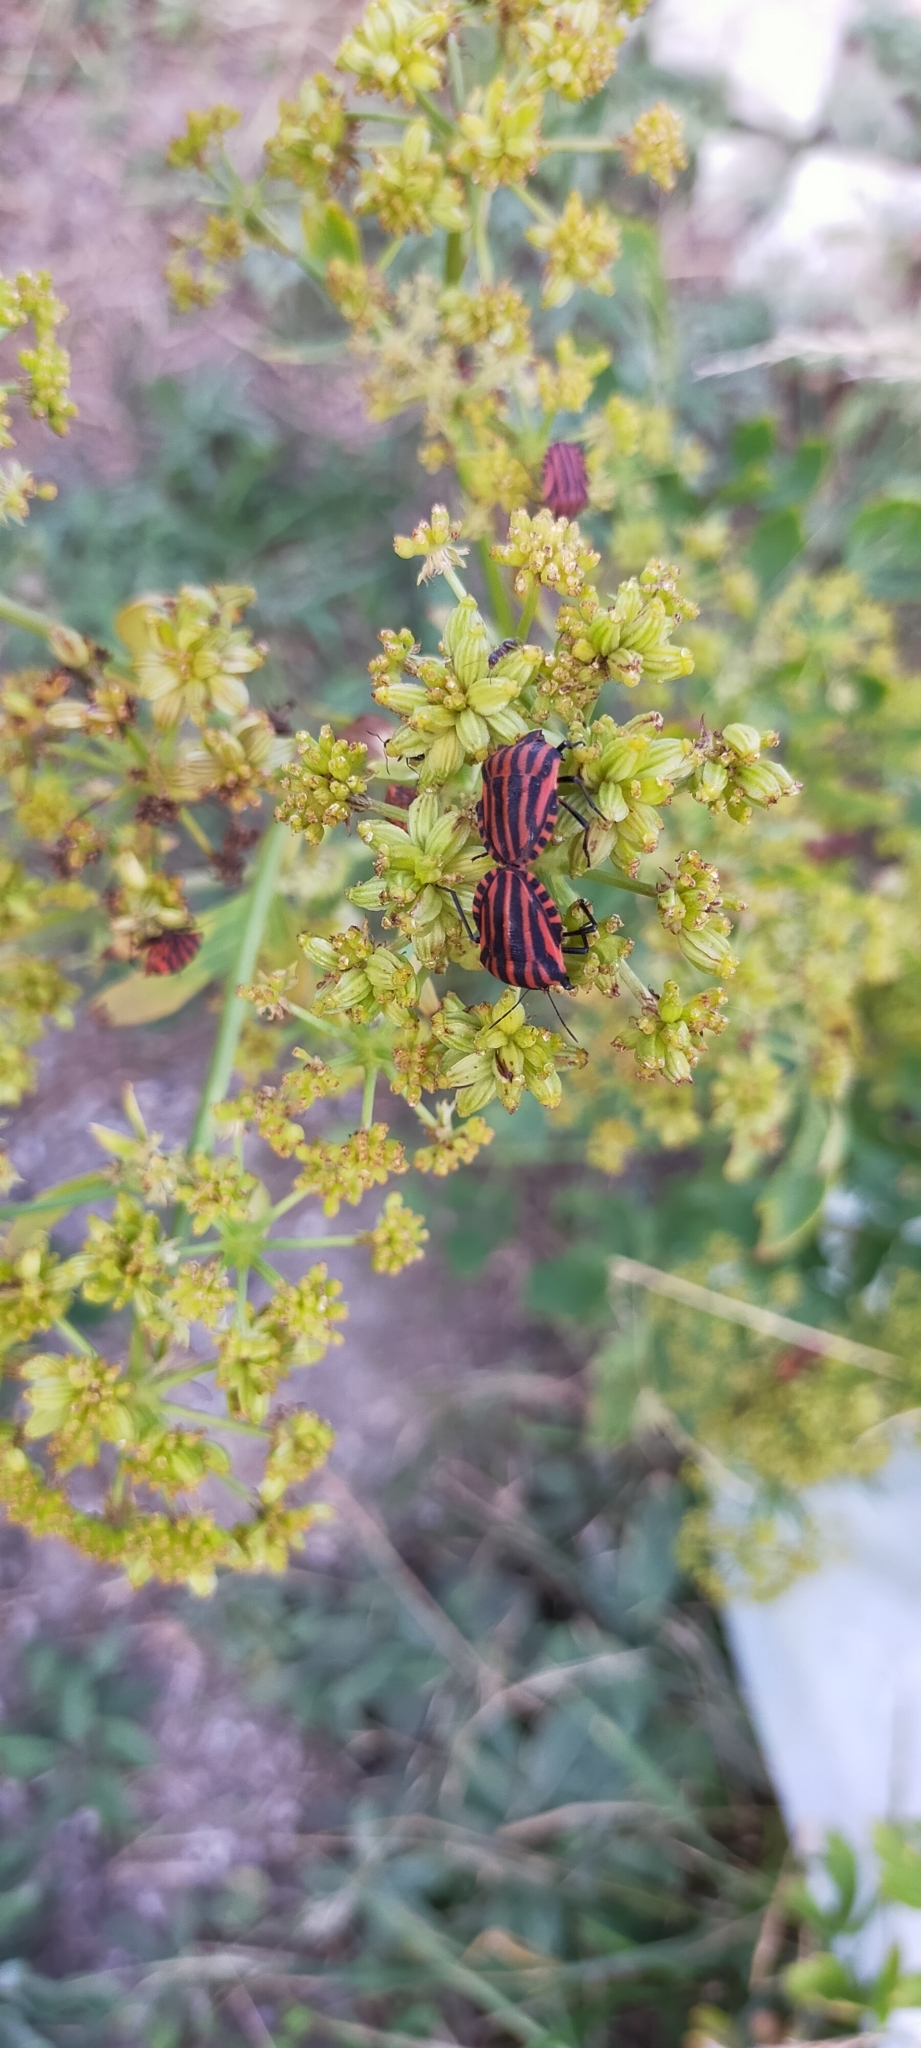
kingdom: Animalia
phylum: Arthropoda
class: Insecta
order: Hemiptera
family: Pentatomidae
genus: Graphosoma
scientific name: Graphosoma italicum
